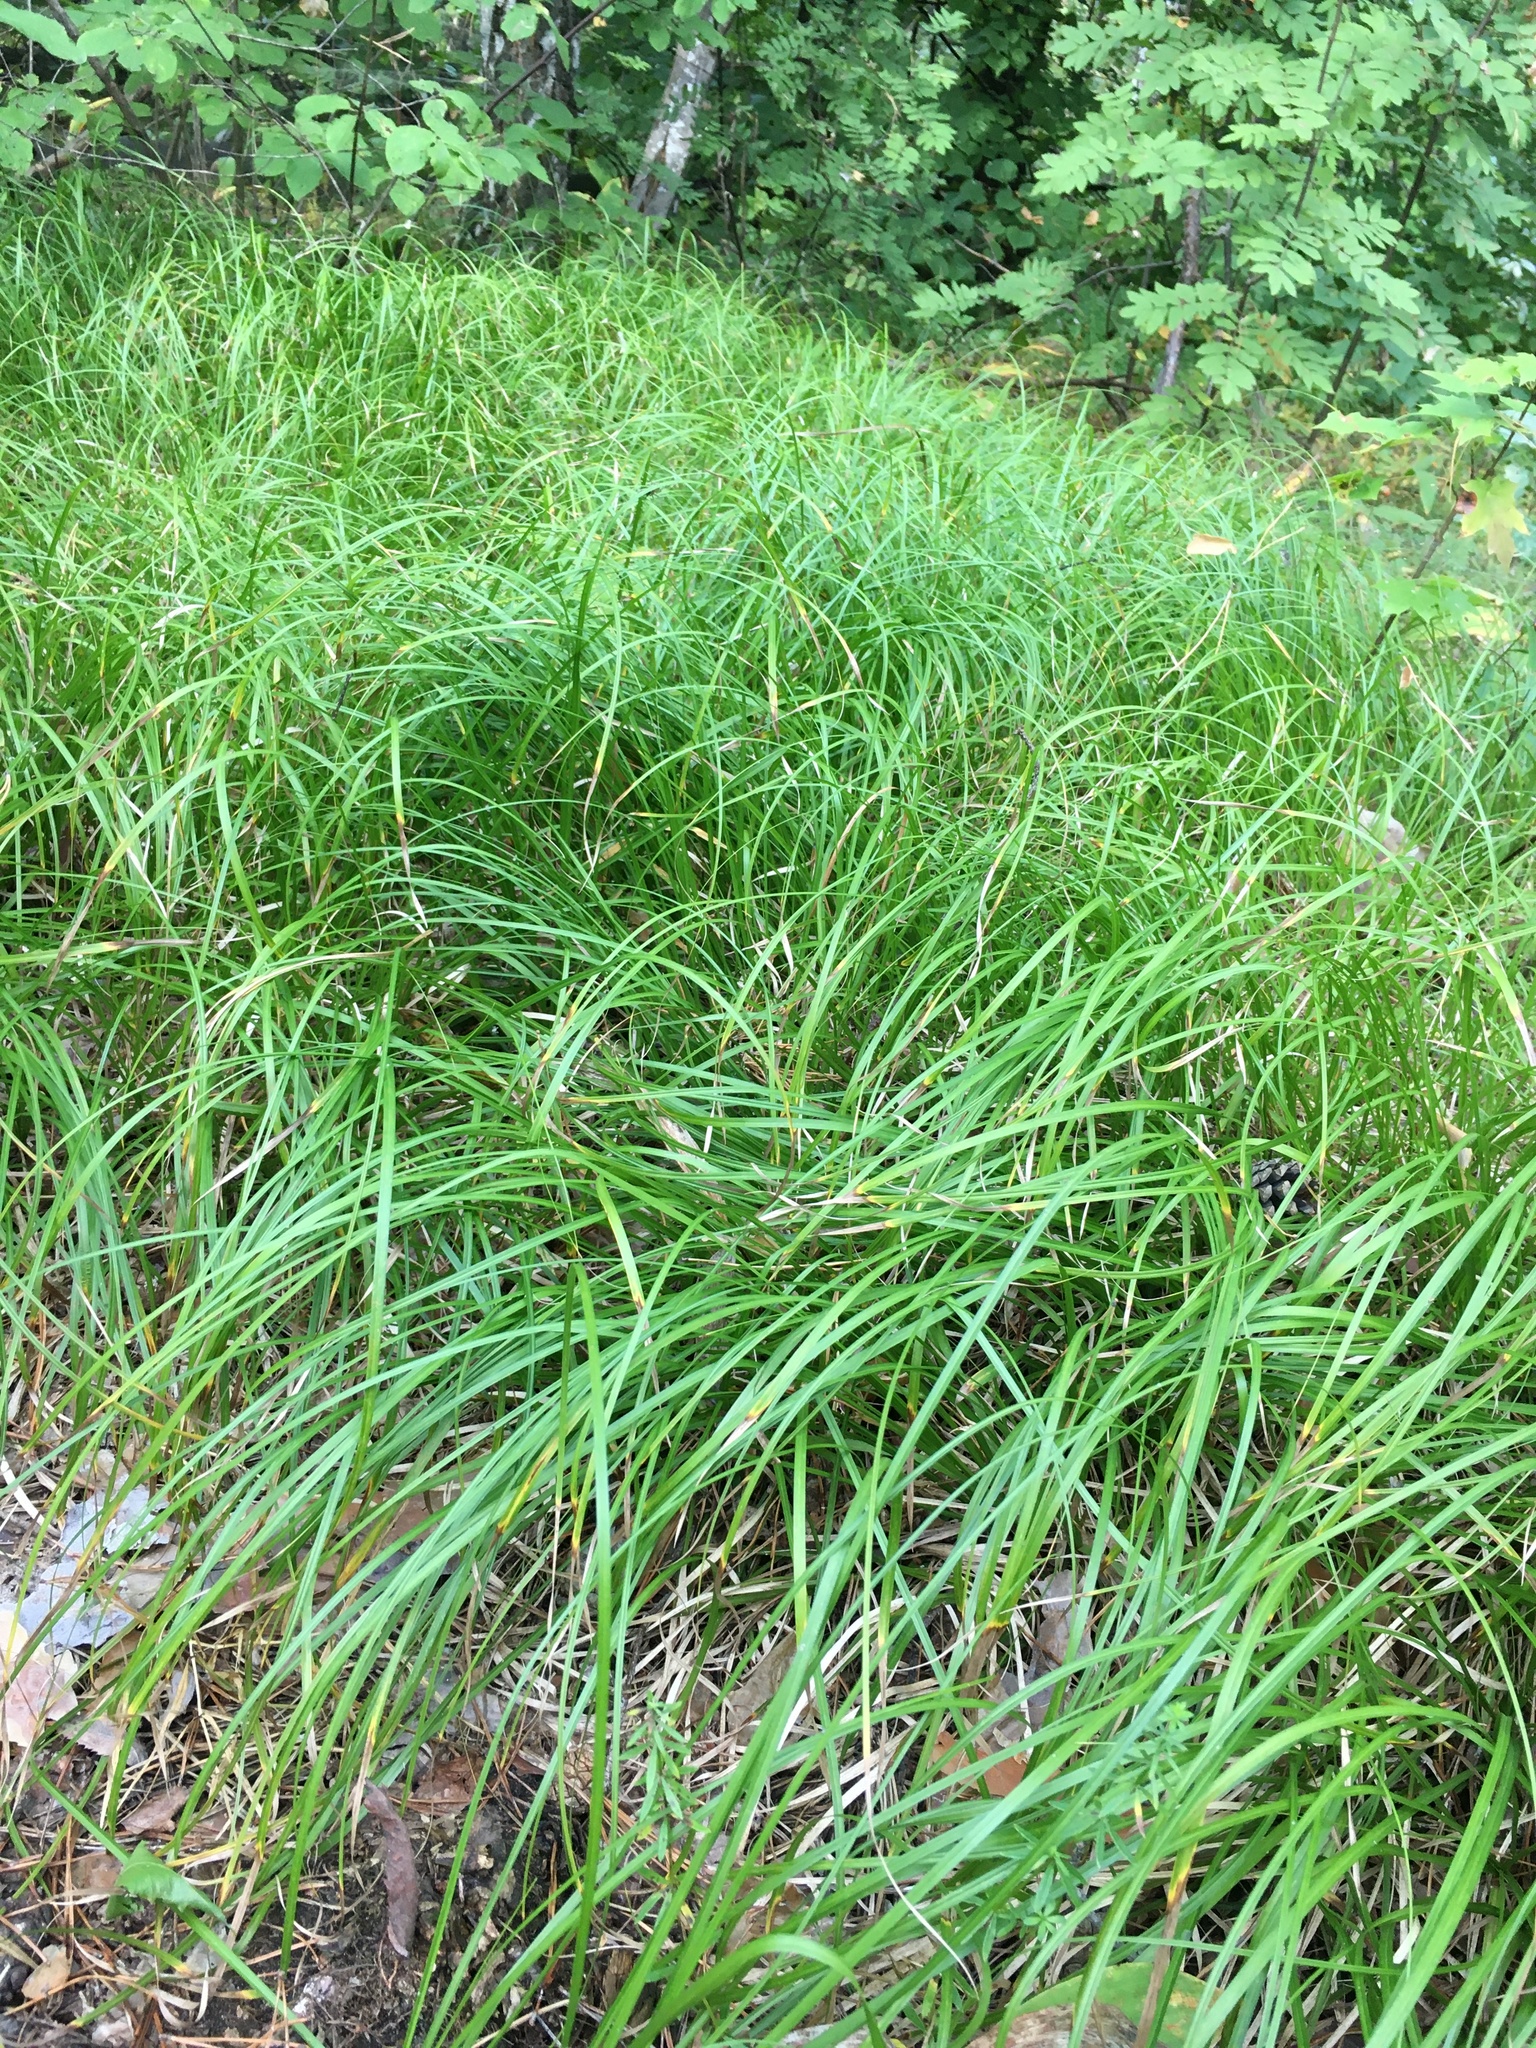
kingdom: Plantae
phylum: Tracheophyta
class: Liliopsida
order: Poales
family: Cyperaceae
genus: Carex
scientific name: Carex
